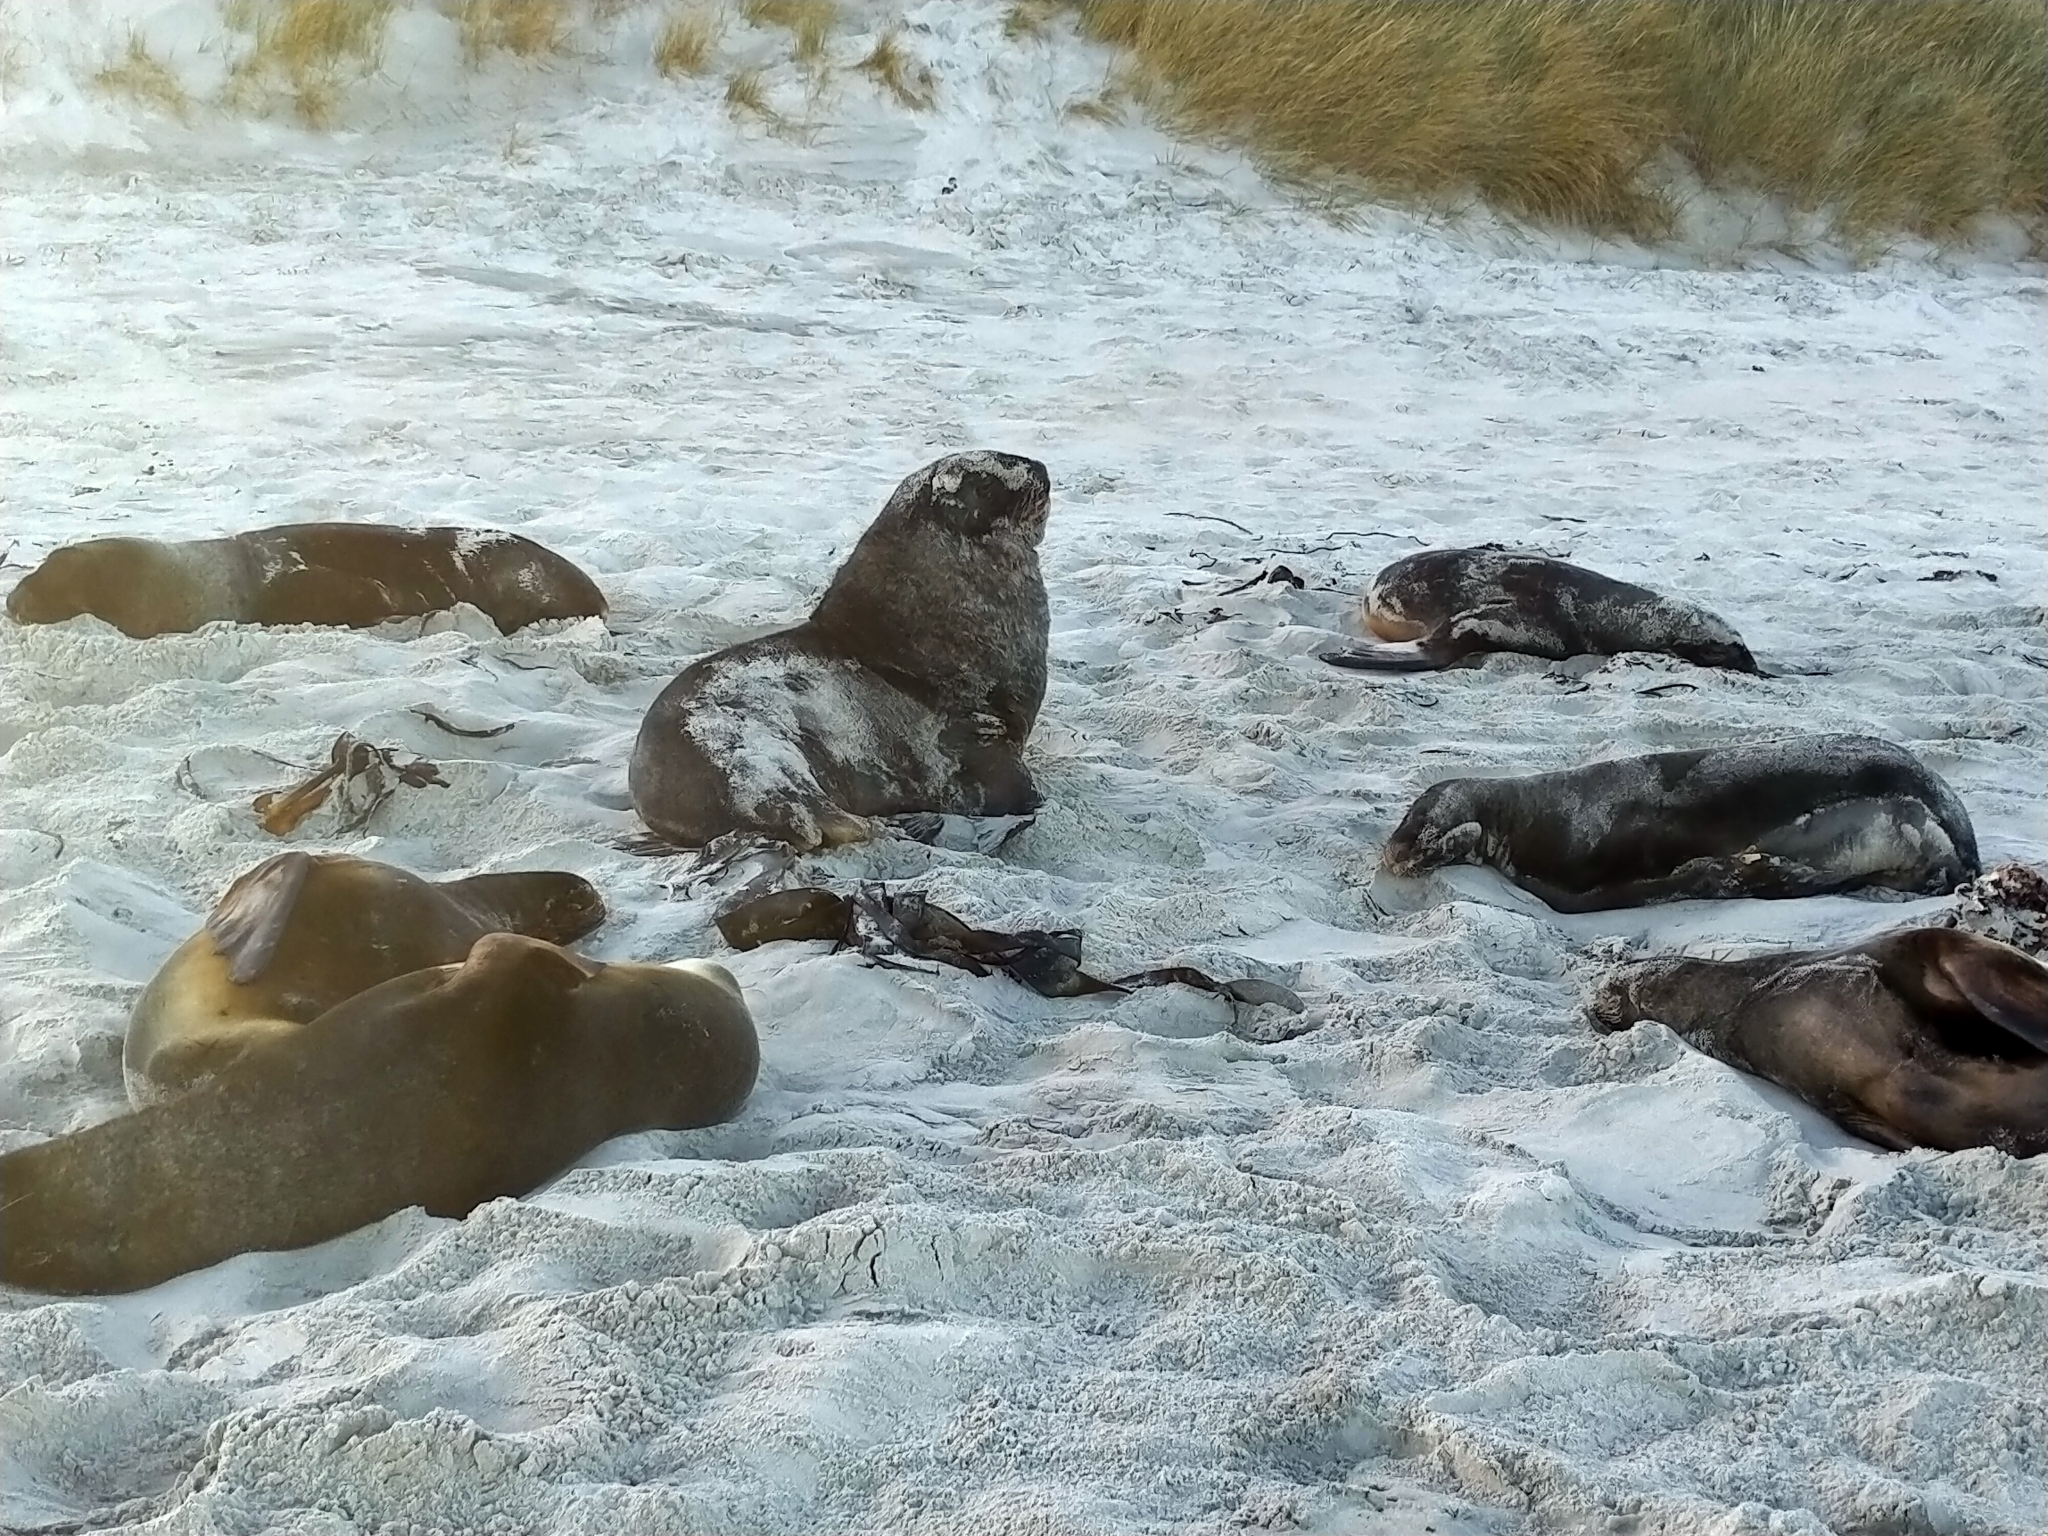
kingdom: Animalia
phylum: Chordata
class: Mammalia
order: Carnivora
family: Otariidae
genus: Phocarctos
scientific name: Phocarctos hookeri
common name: New zealand sea lion
